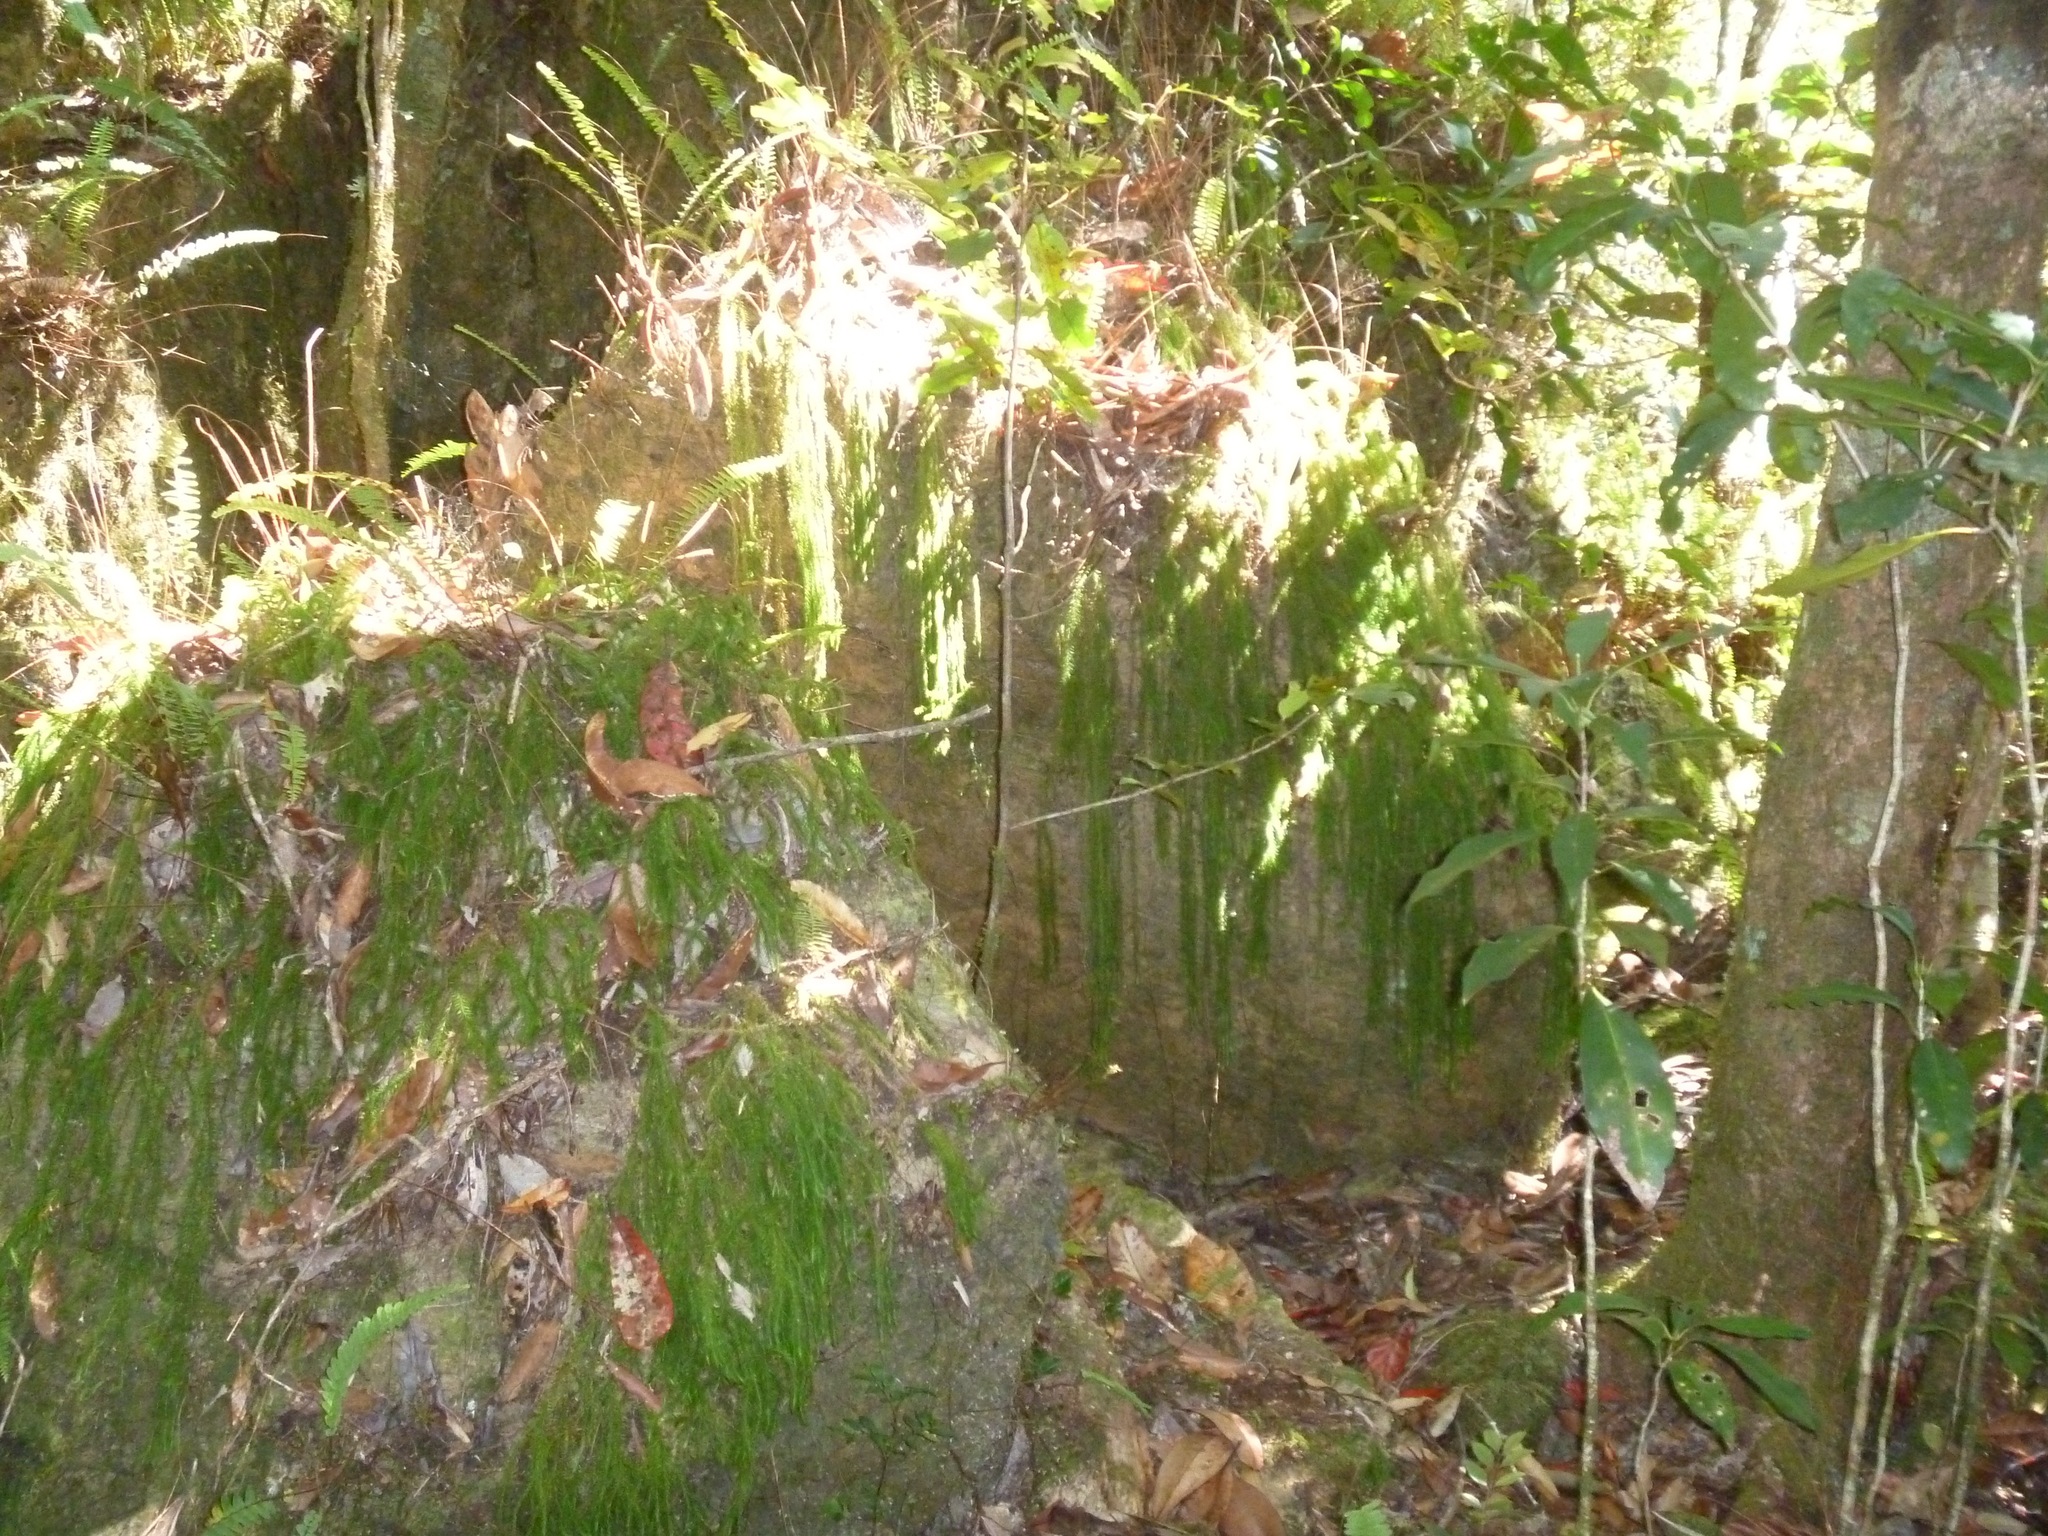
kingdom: Plantae
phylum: Tracheophyta
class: Lycopodiopsida
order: Lycopodiales
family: Lycopodiaceae
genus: Phlegmariurus
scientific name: Phlegmariurus filiformis
